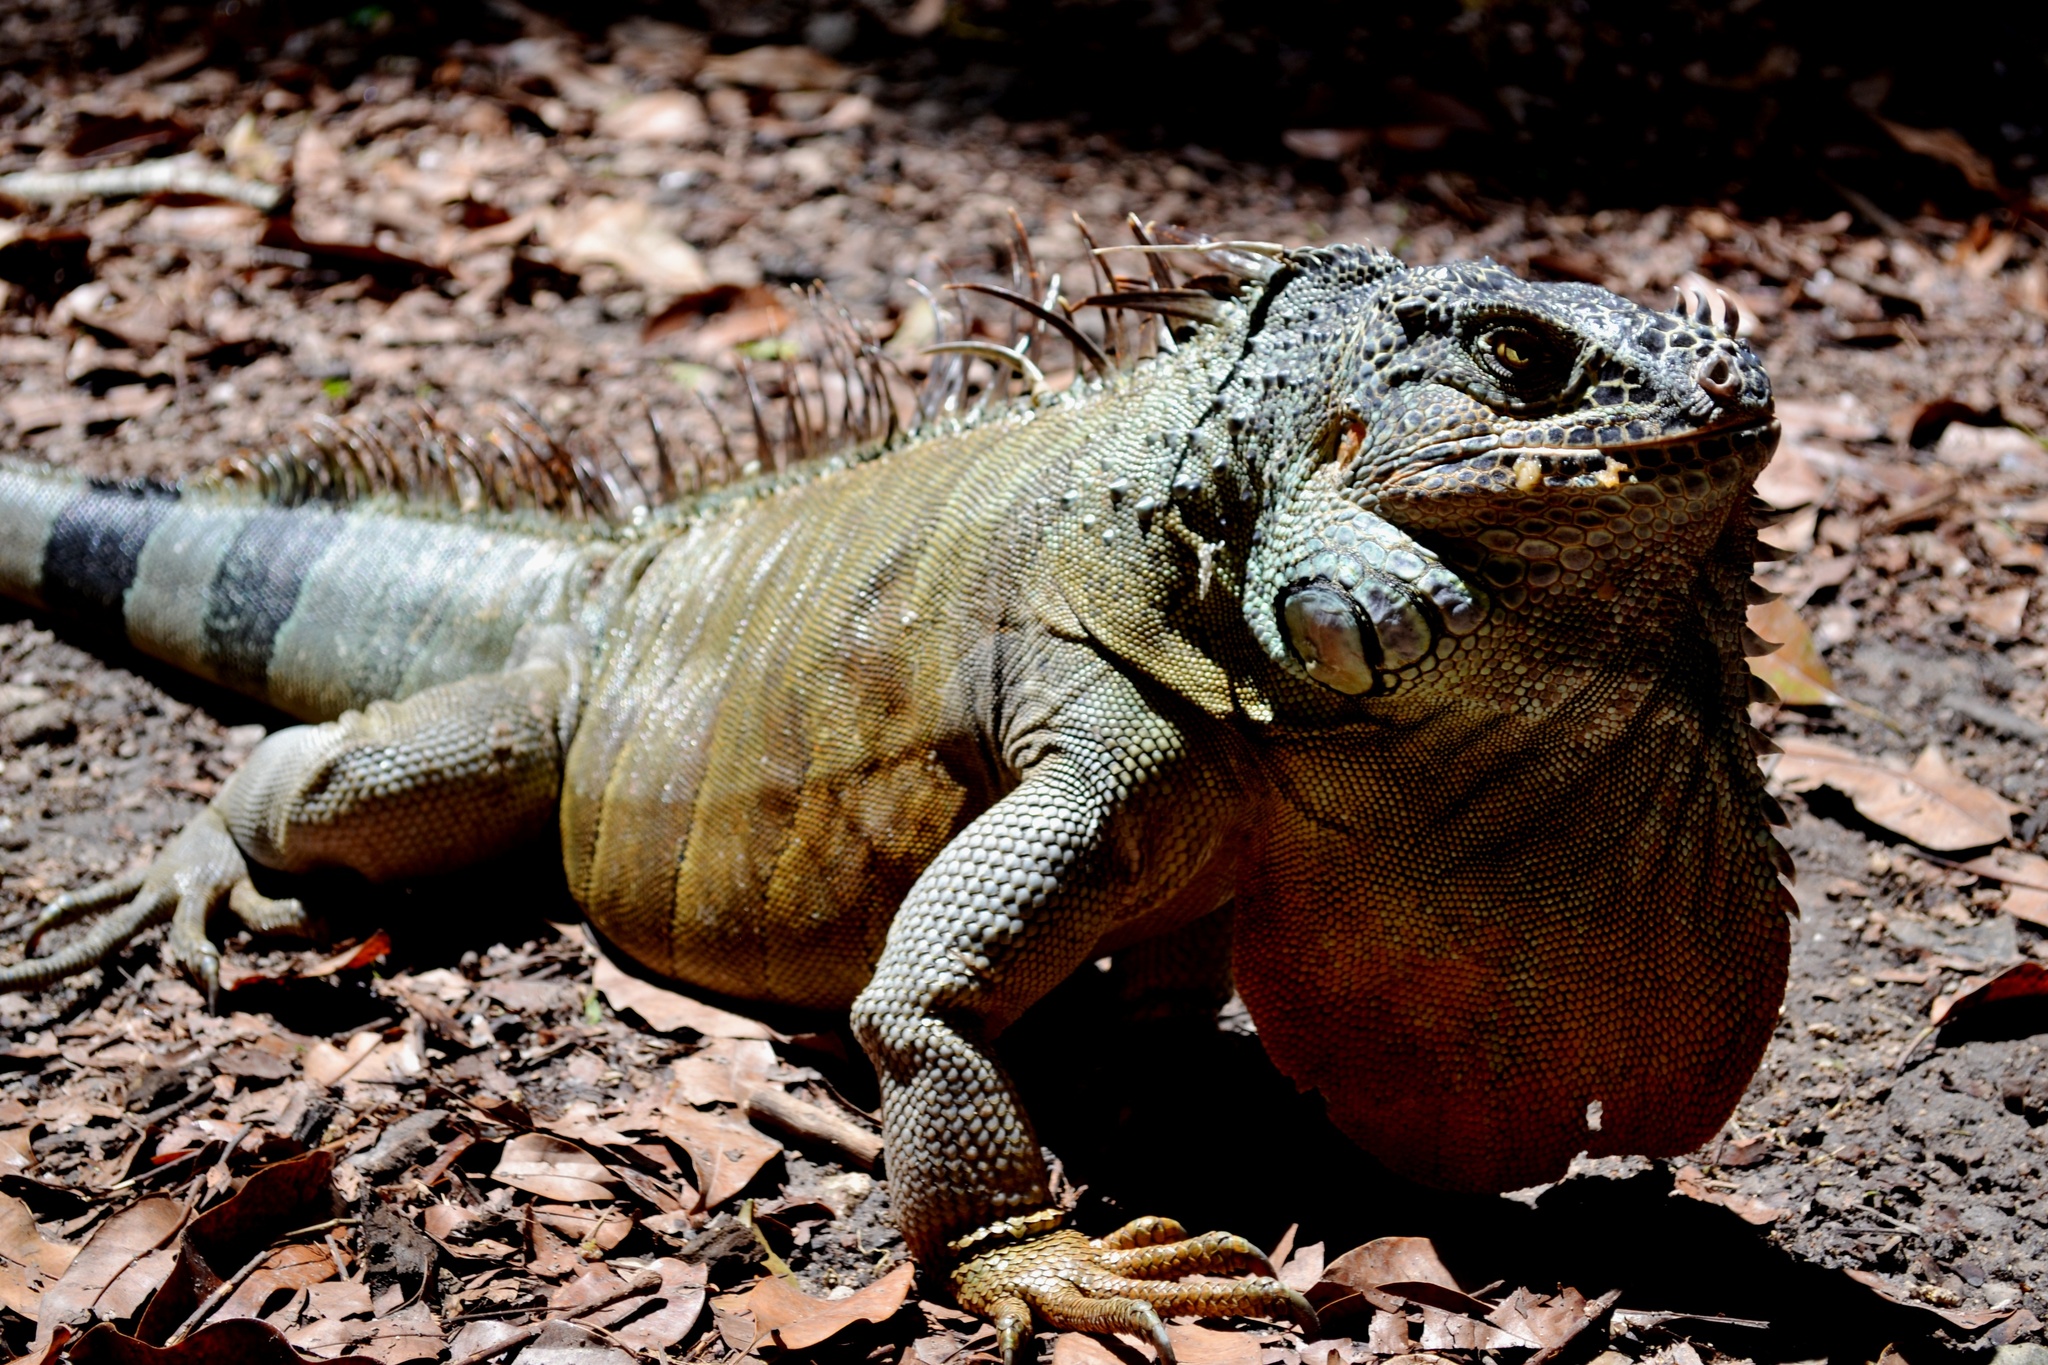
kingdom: Animalia
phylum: Chordata
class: Squamata
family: Iguanidae
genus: Iguana
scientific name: Iguana iguana
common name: Green iguana
